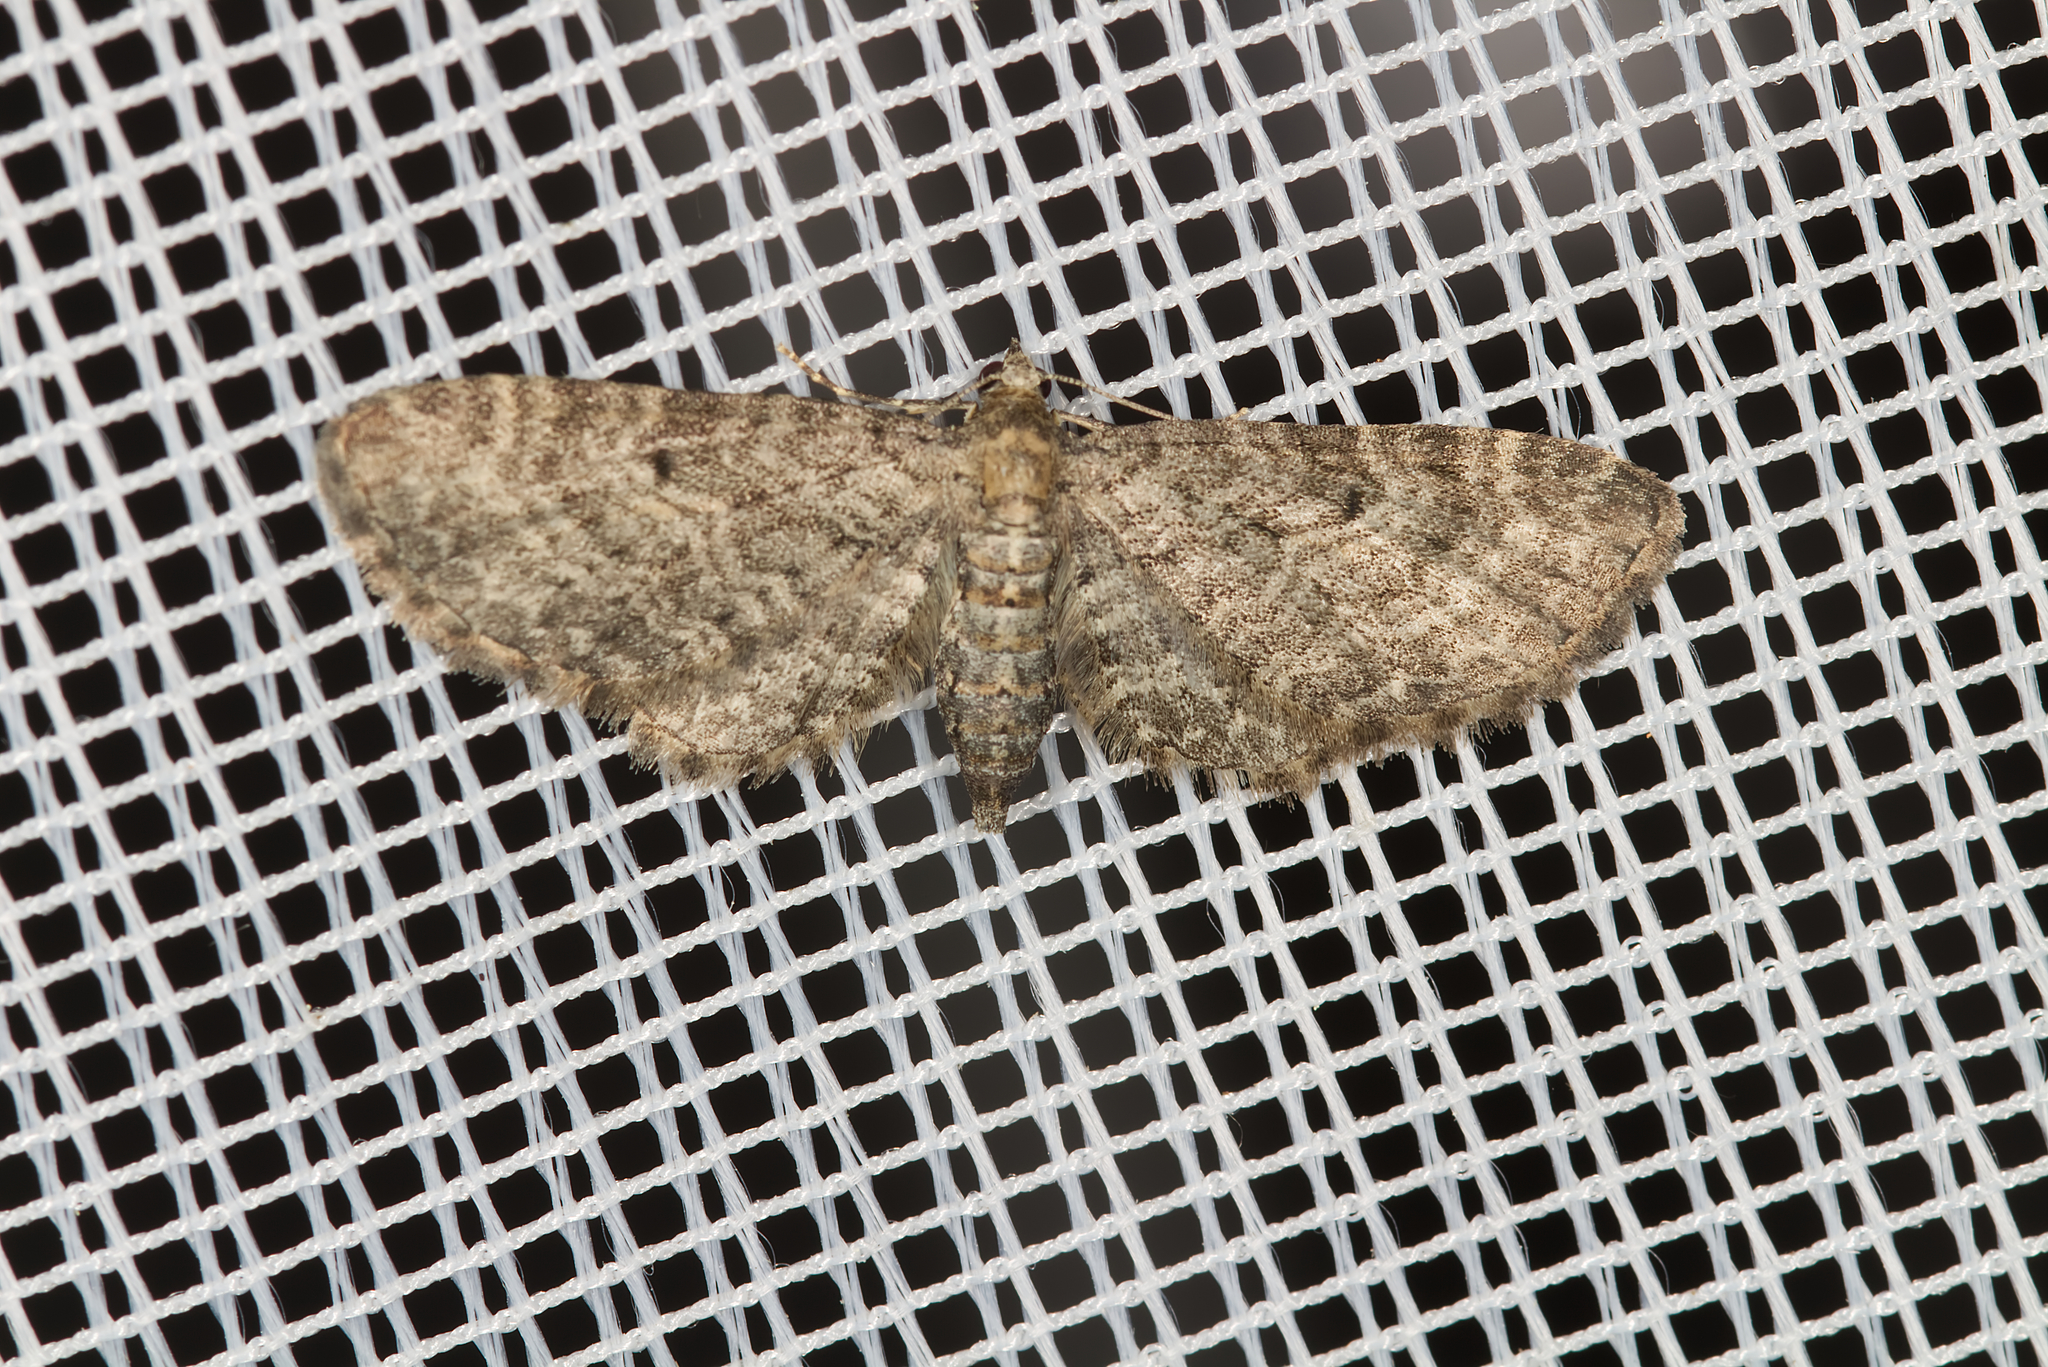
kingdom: Animalia
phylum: Arthropoda
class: Insecta
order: Lepidoptera
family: Geometridae
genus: Eupithecia
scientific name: Eupithecia subfuscata
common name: Grey pug
